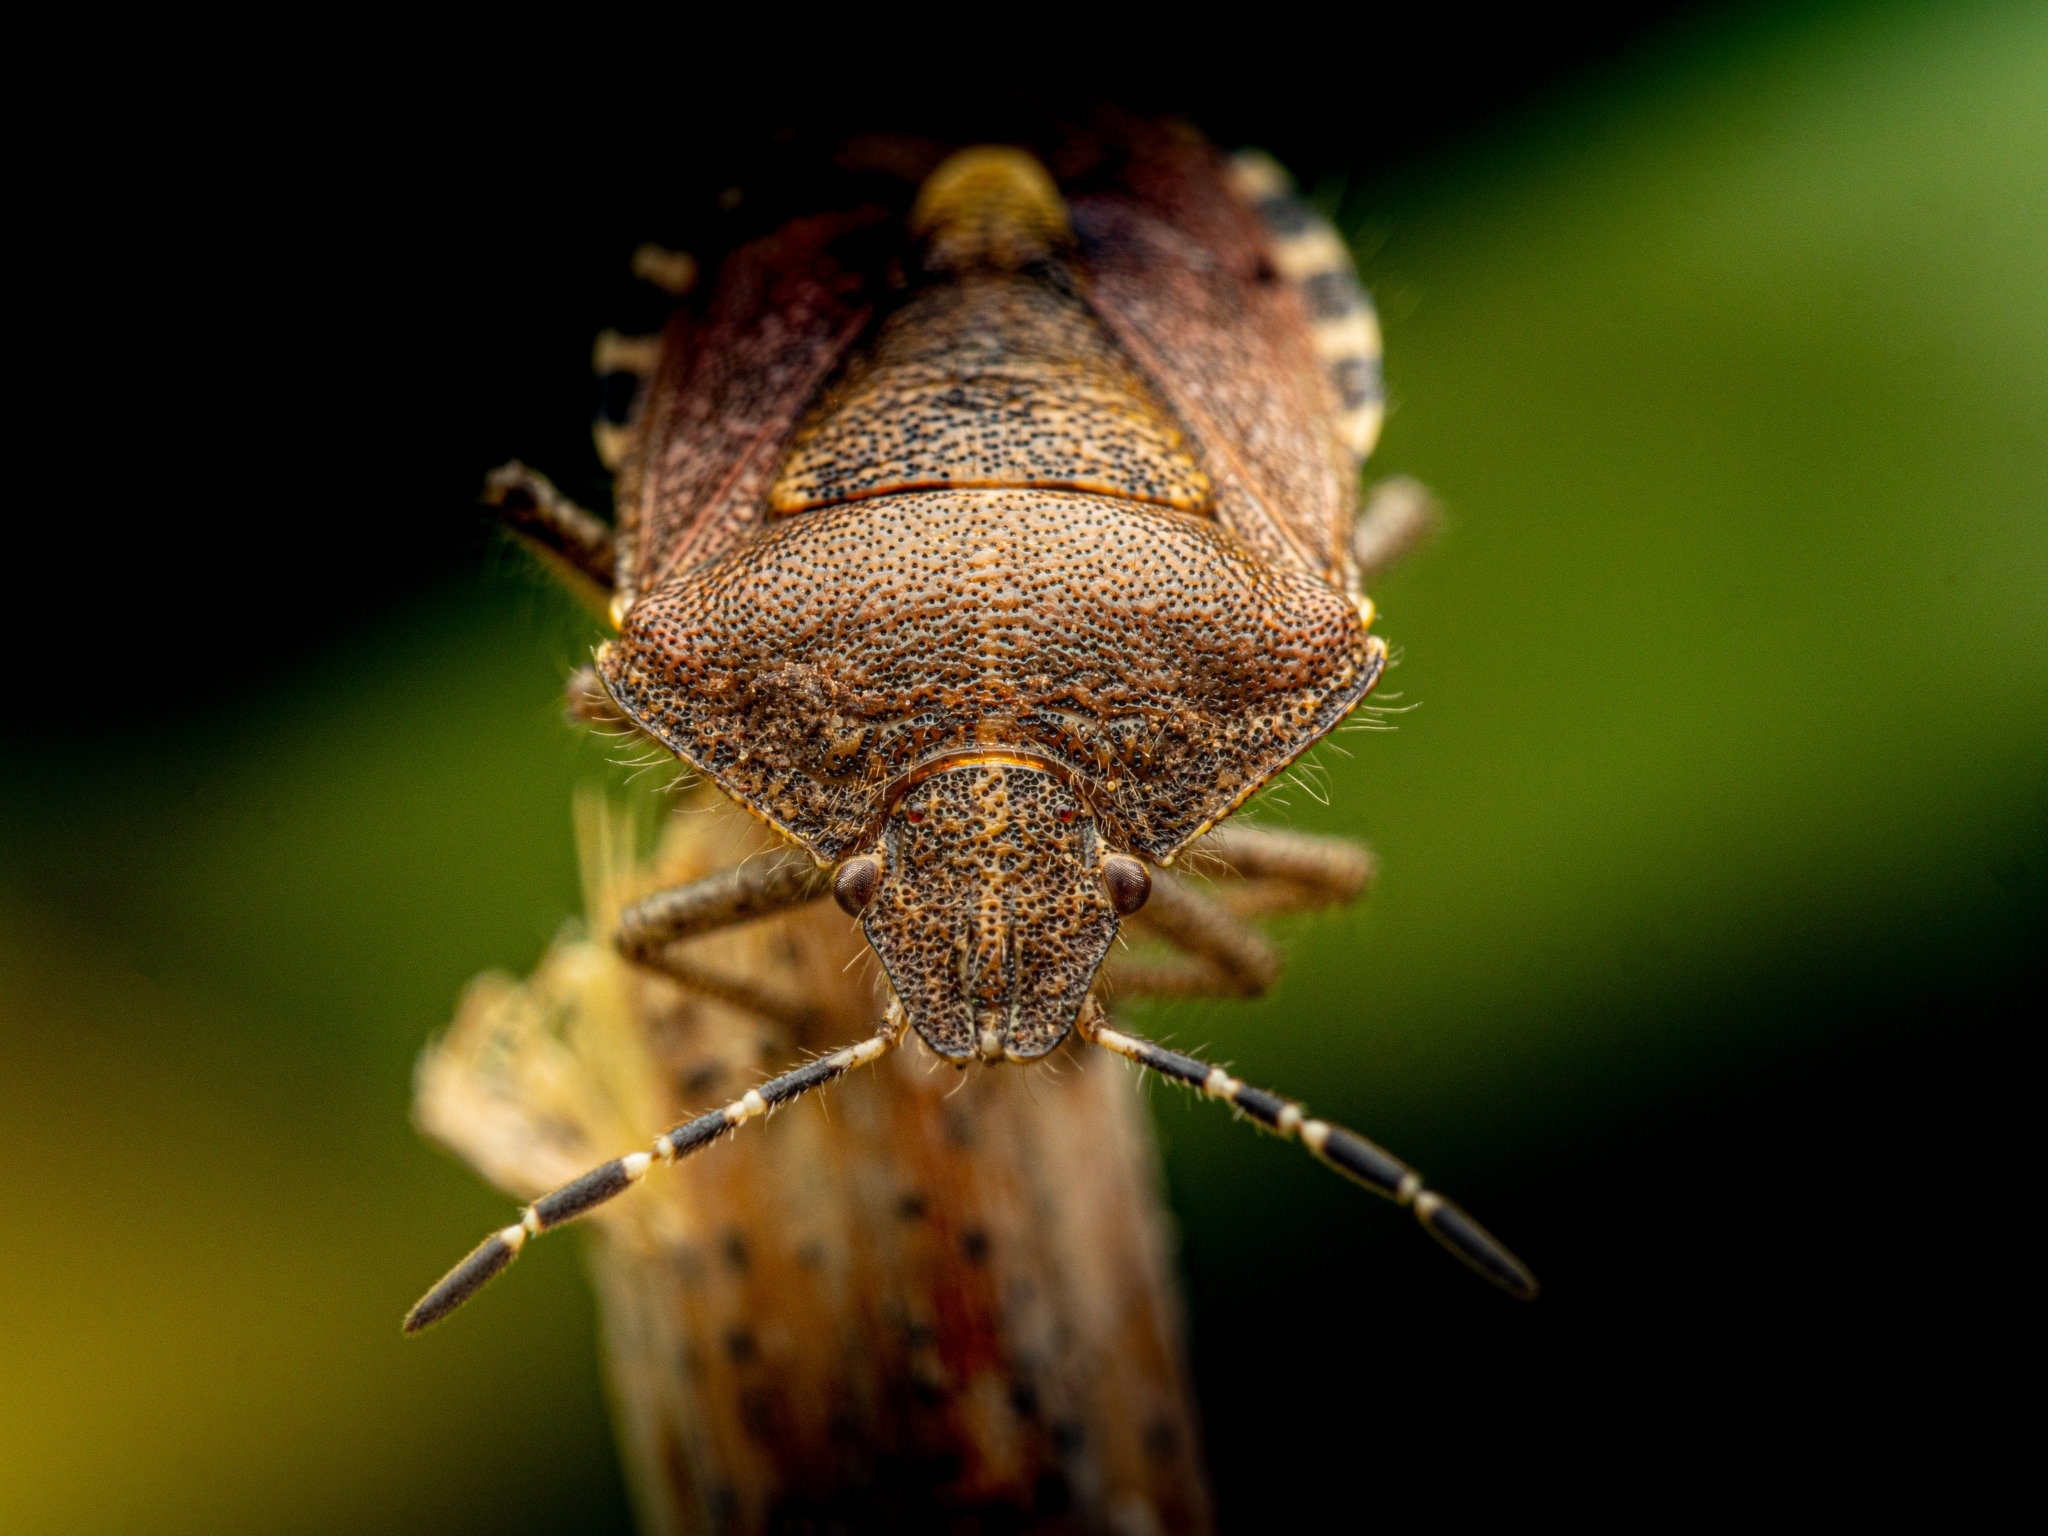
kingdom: Animalia
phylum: Arthropoda
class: Insecta
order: Hemiptera
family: Pentatomidae
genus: Dolycoris
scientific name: Dolycoris baccarum
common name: Sloe bug
